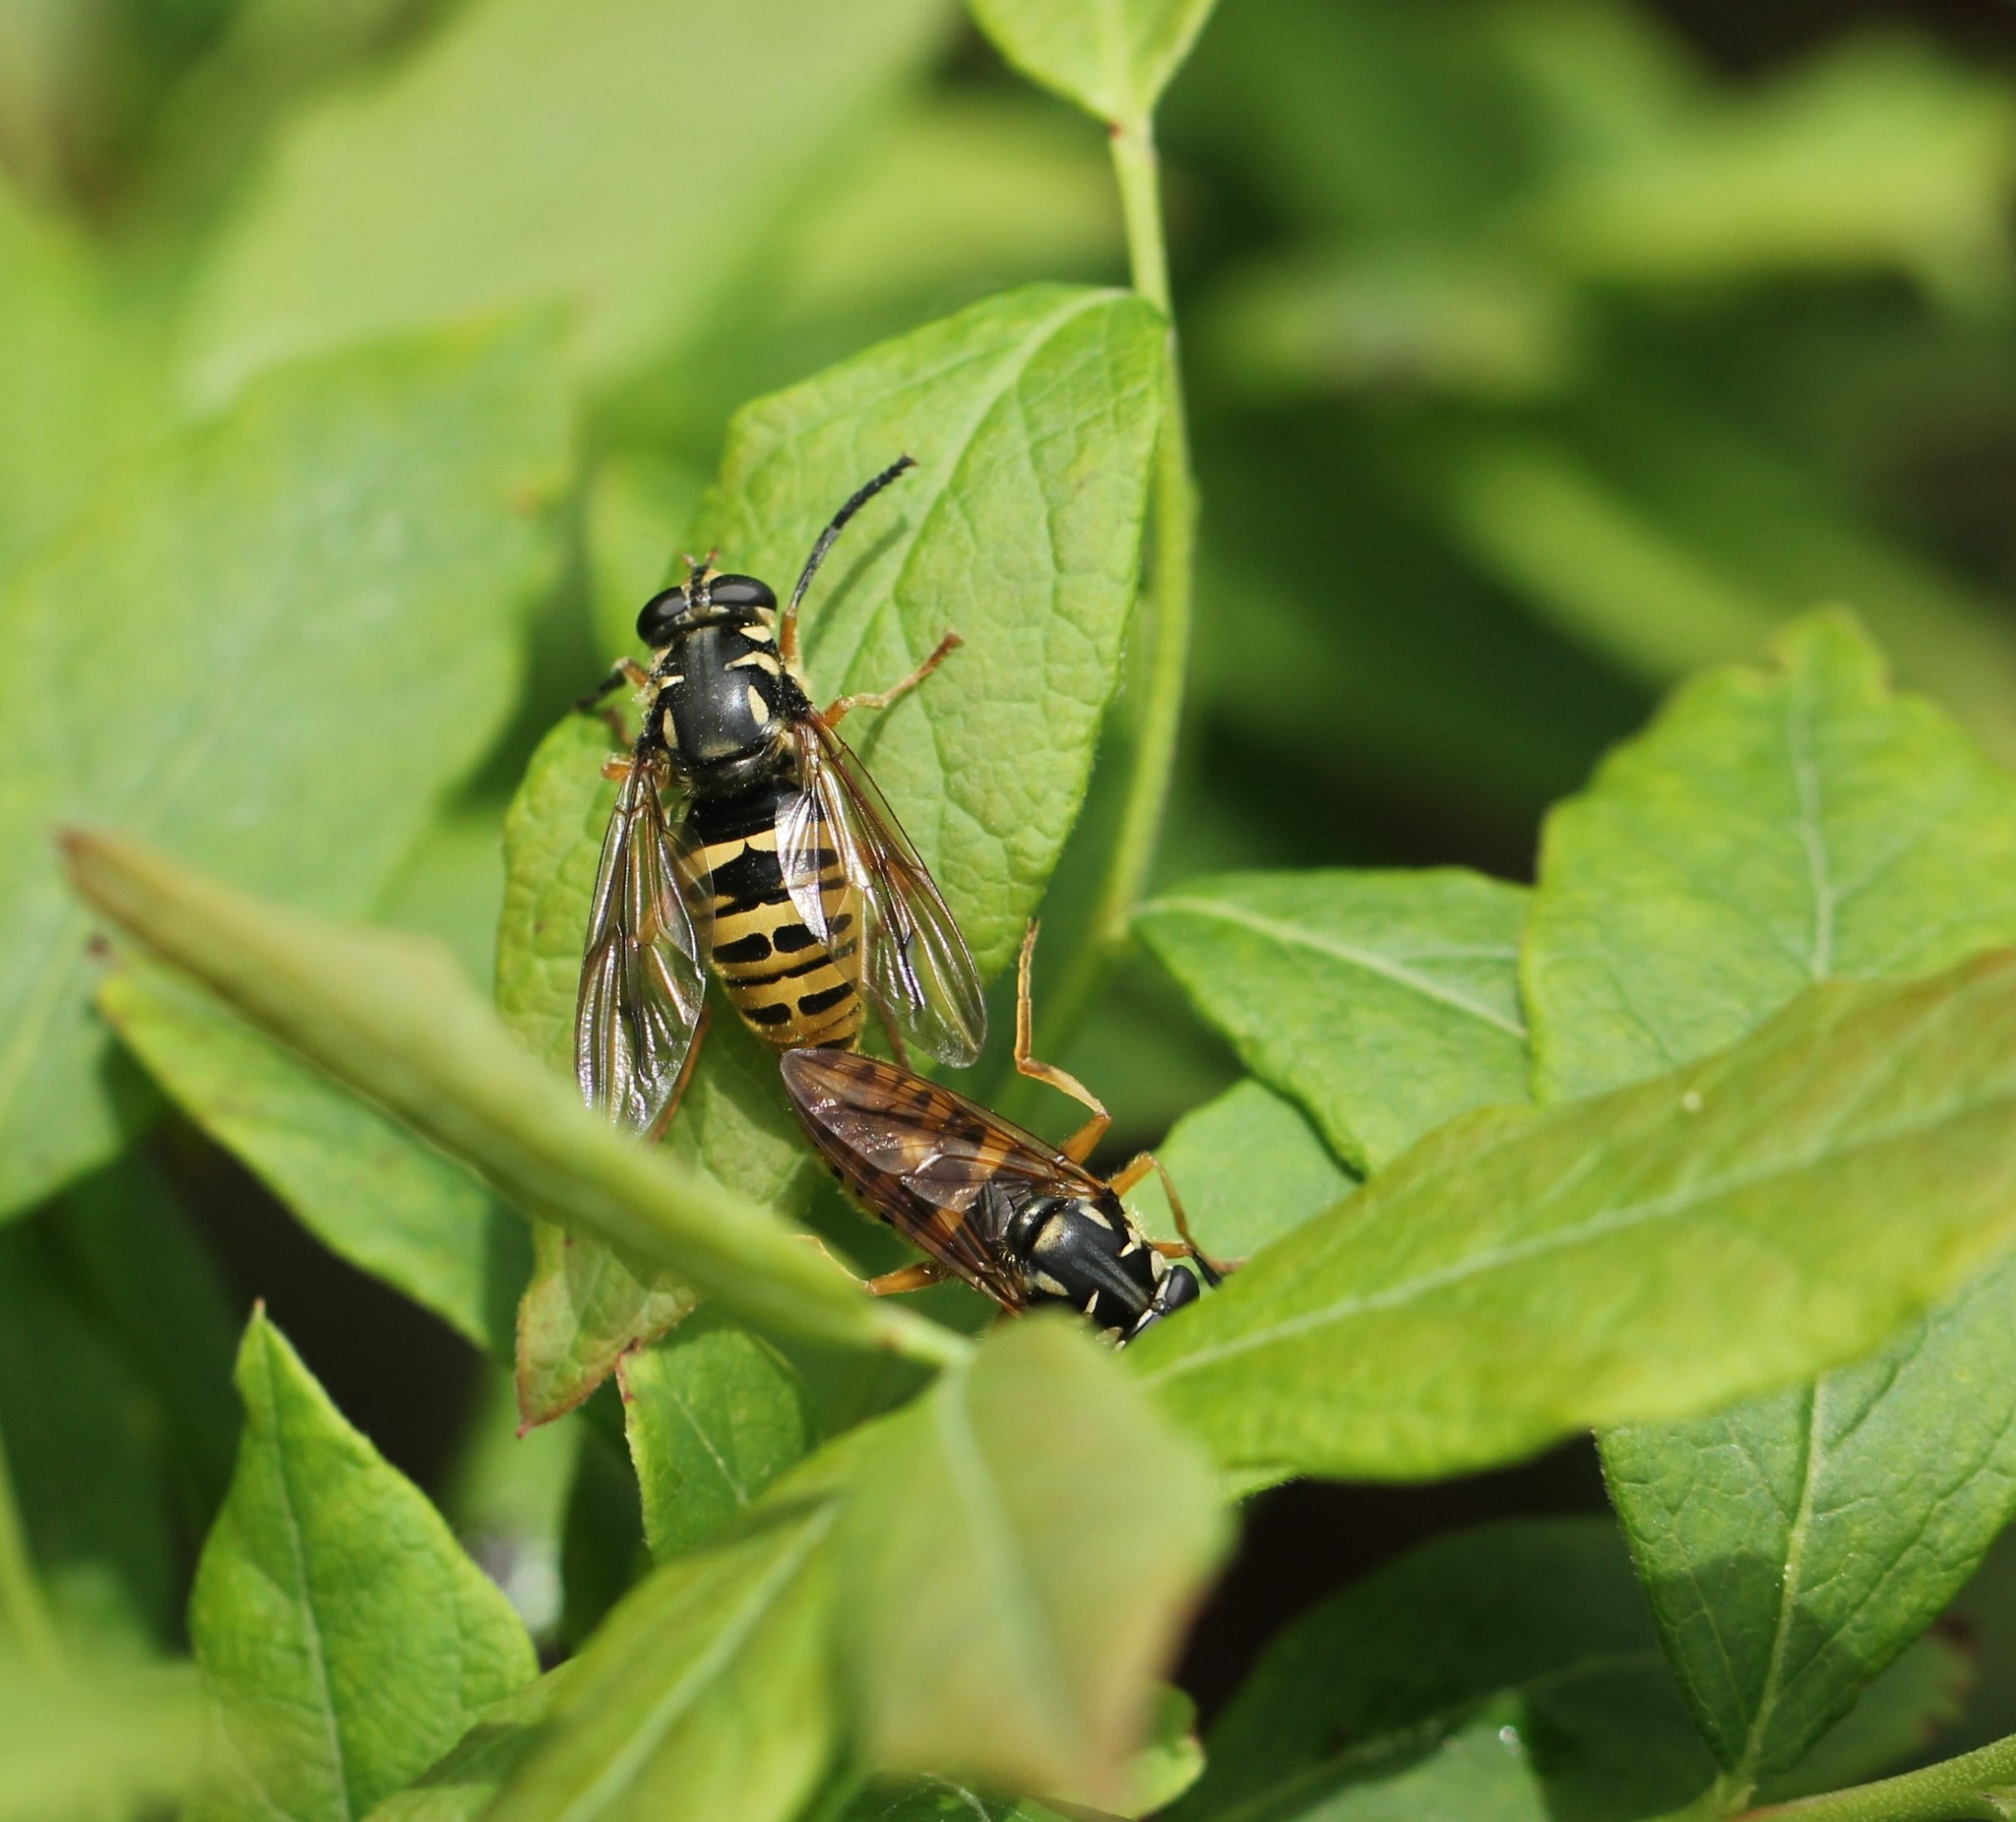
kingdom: Animalia
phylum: Arthropoda
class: Insecta
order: Diptera
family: Syrphidae
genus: Temnostoma
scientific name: Temnostoma excentricum
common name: Black-spotted falsehorn
